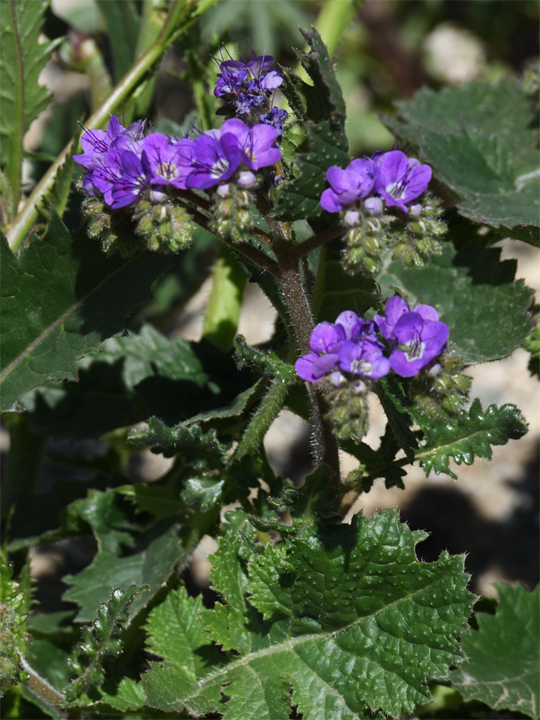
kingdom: Plantae
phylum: Tracheophyta
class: Magnoliopsida
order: Boraginales
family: Hydrophyllaceae
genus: Phacelia
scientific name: Phacelia crenulata
